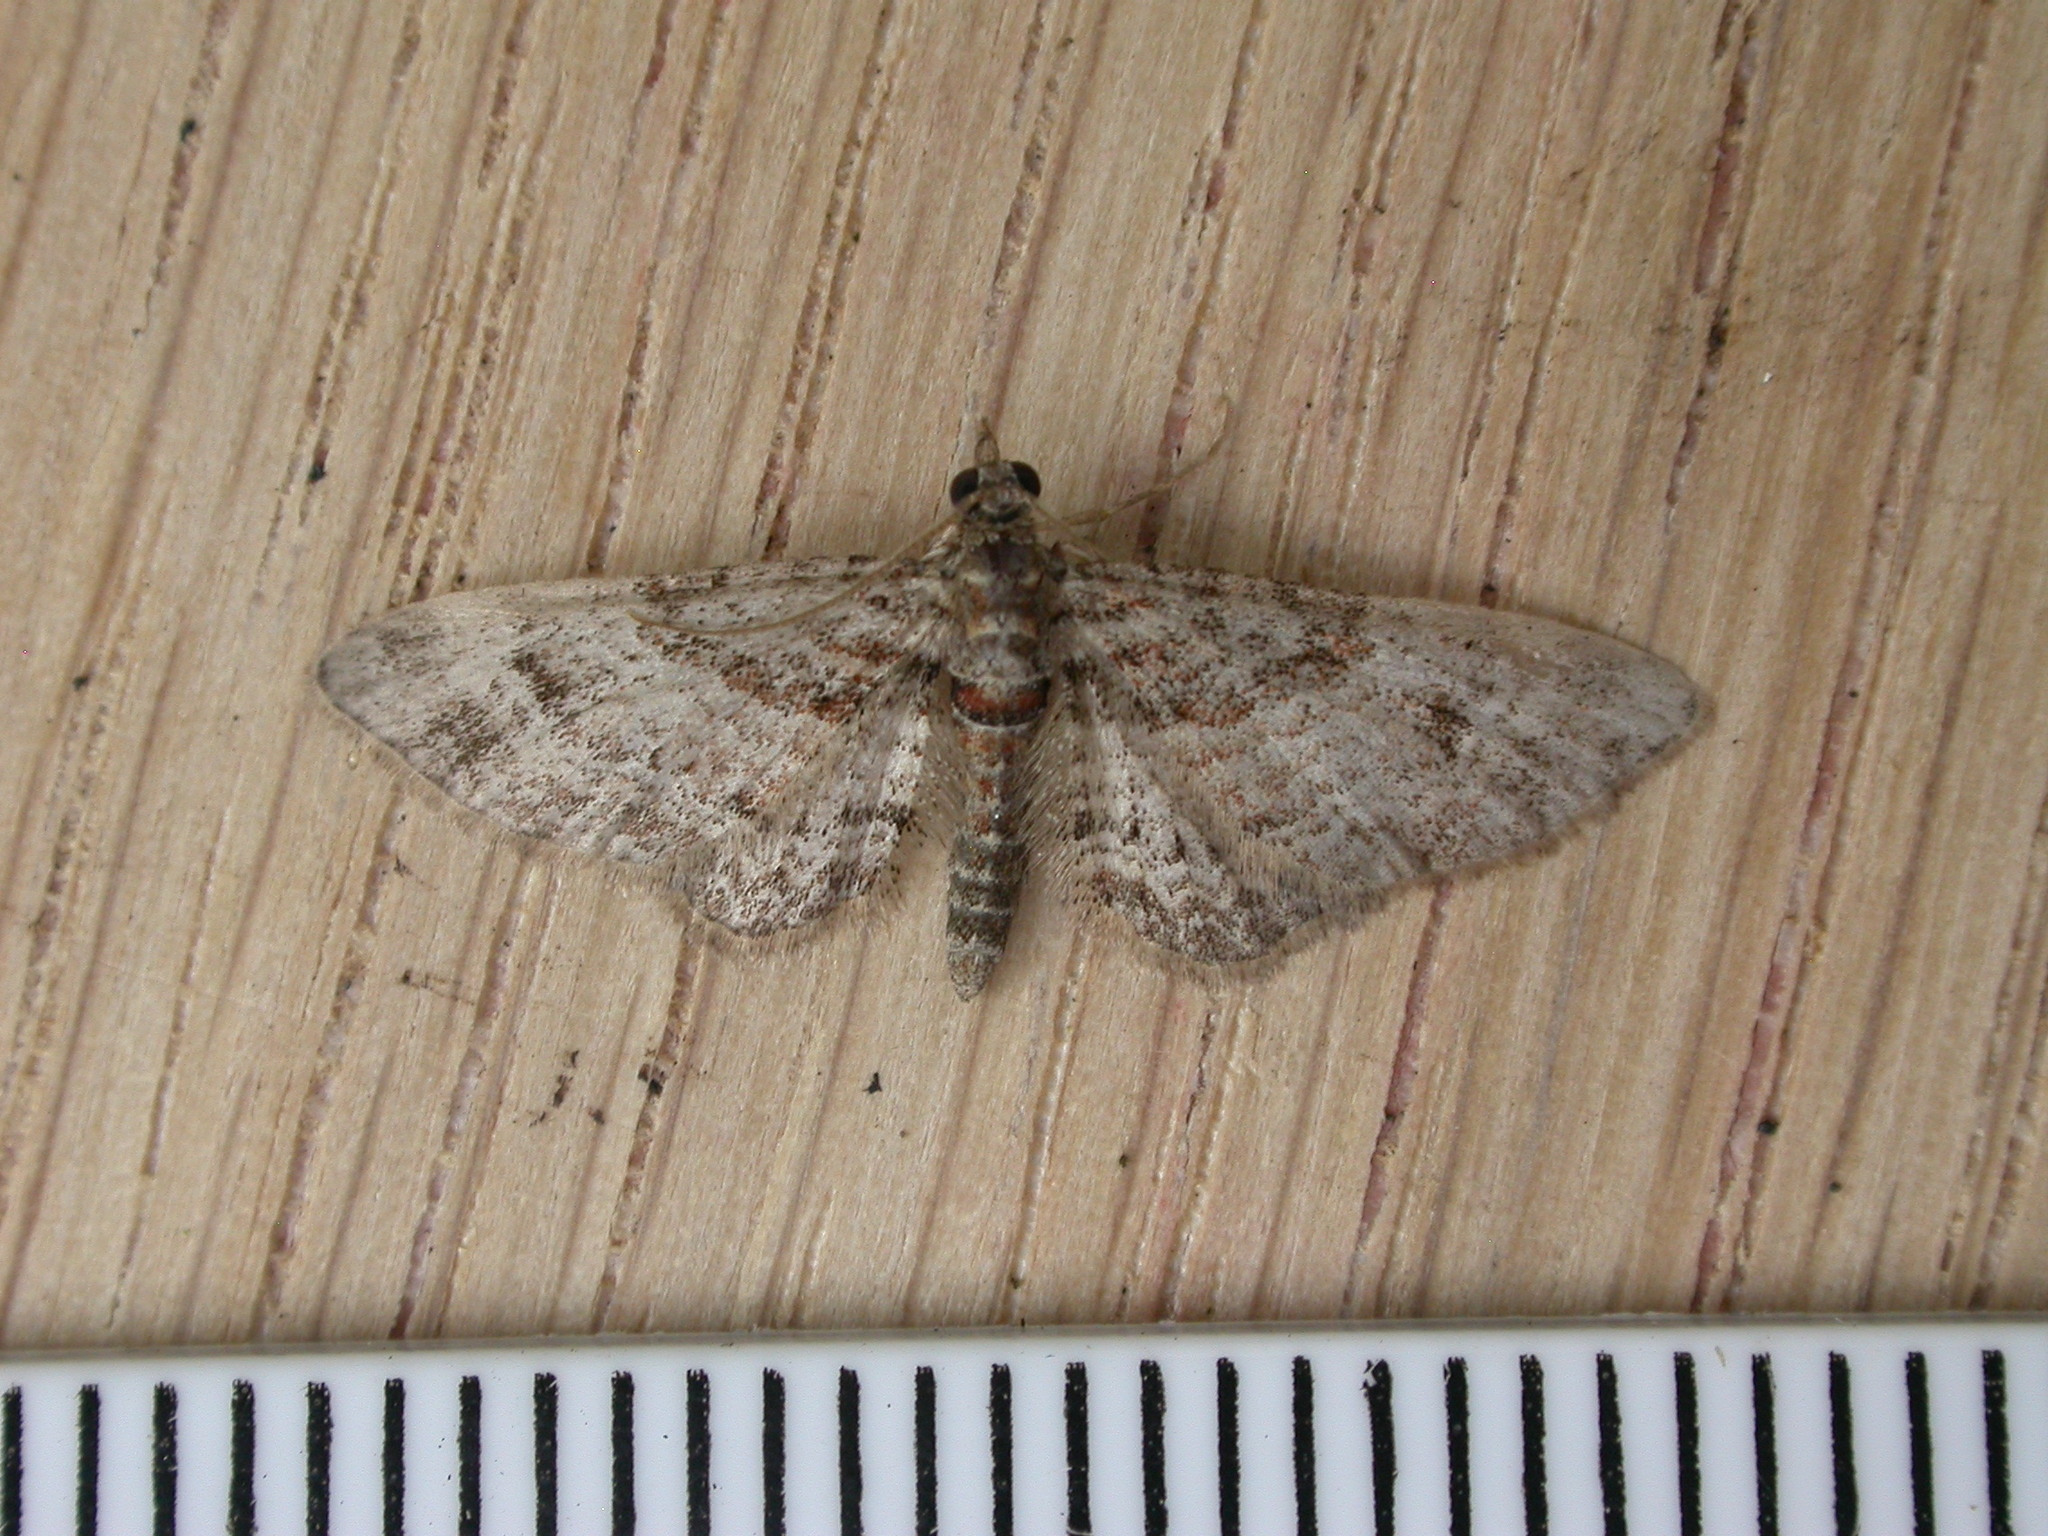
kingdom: Animalia
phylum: Arthropoda
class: Insecta
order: Lepidoptera
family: Geometridae
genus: Gymnoscelis
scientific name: Gymnoscelis rufifasciata
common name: Double-striped pug
